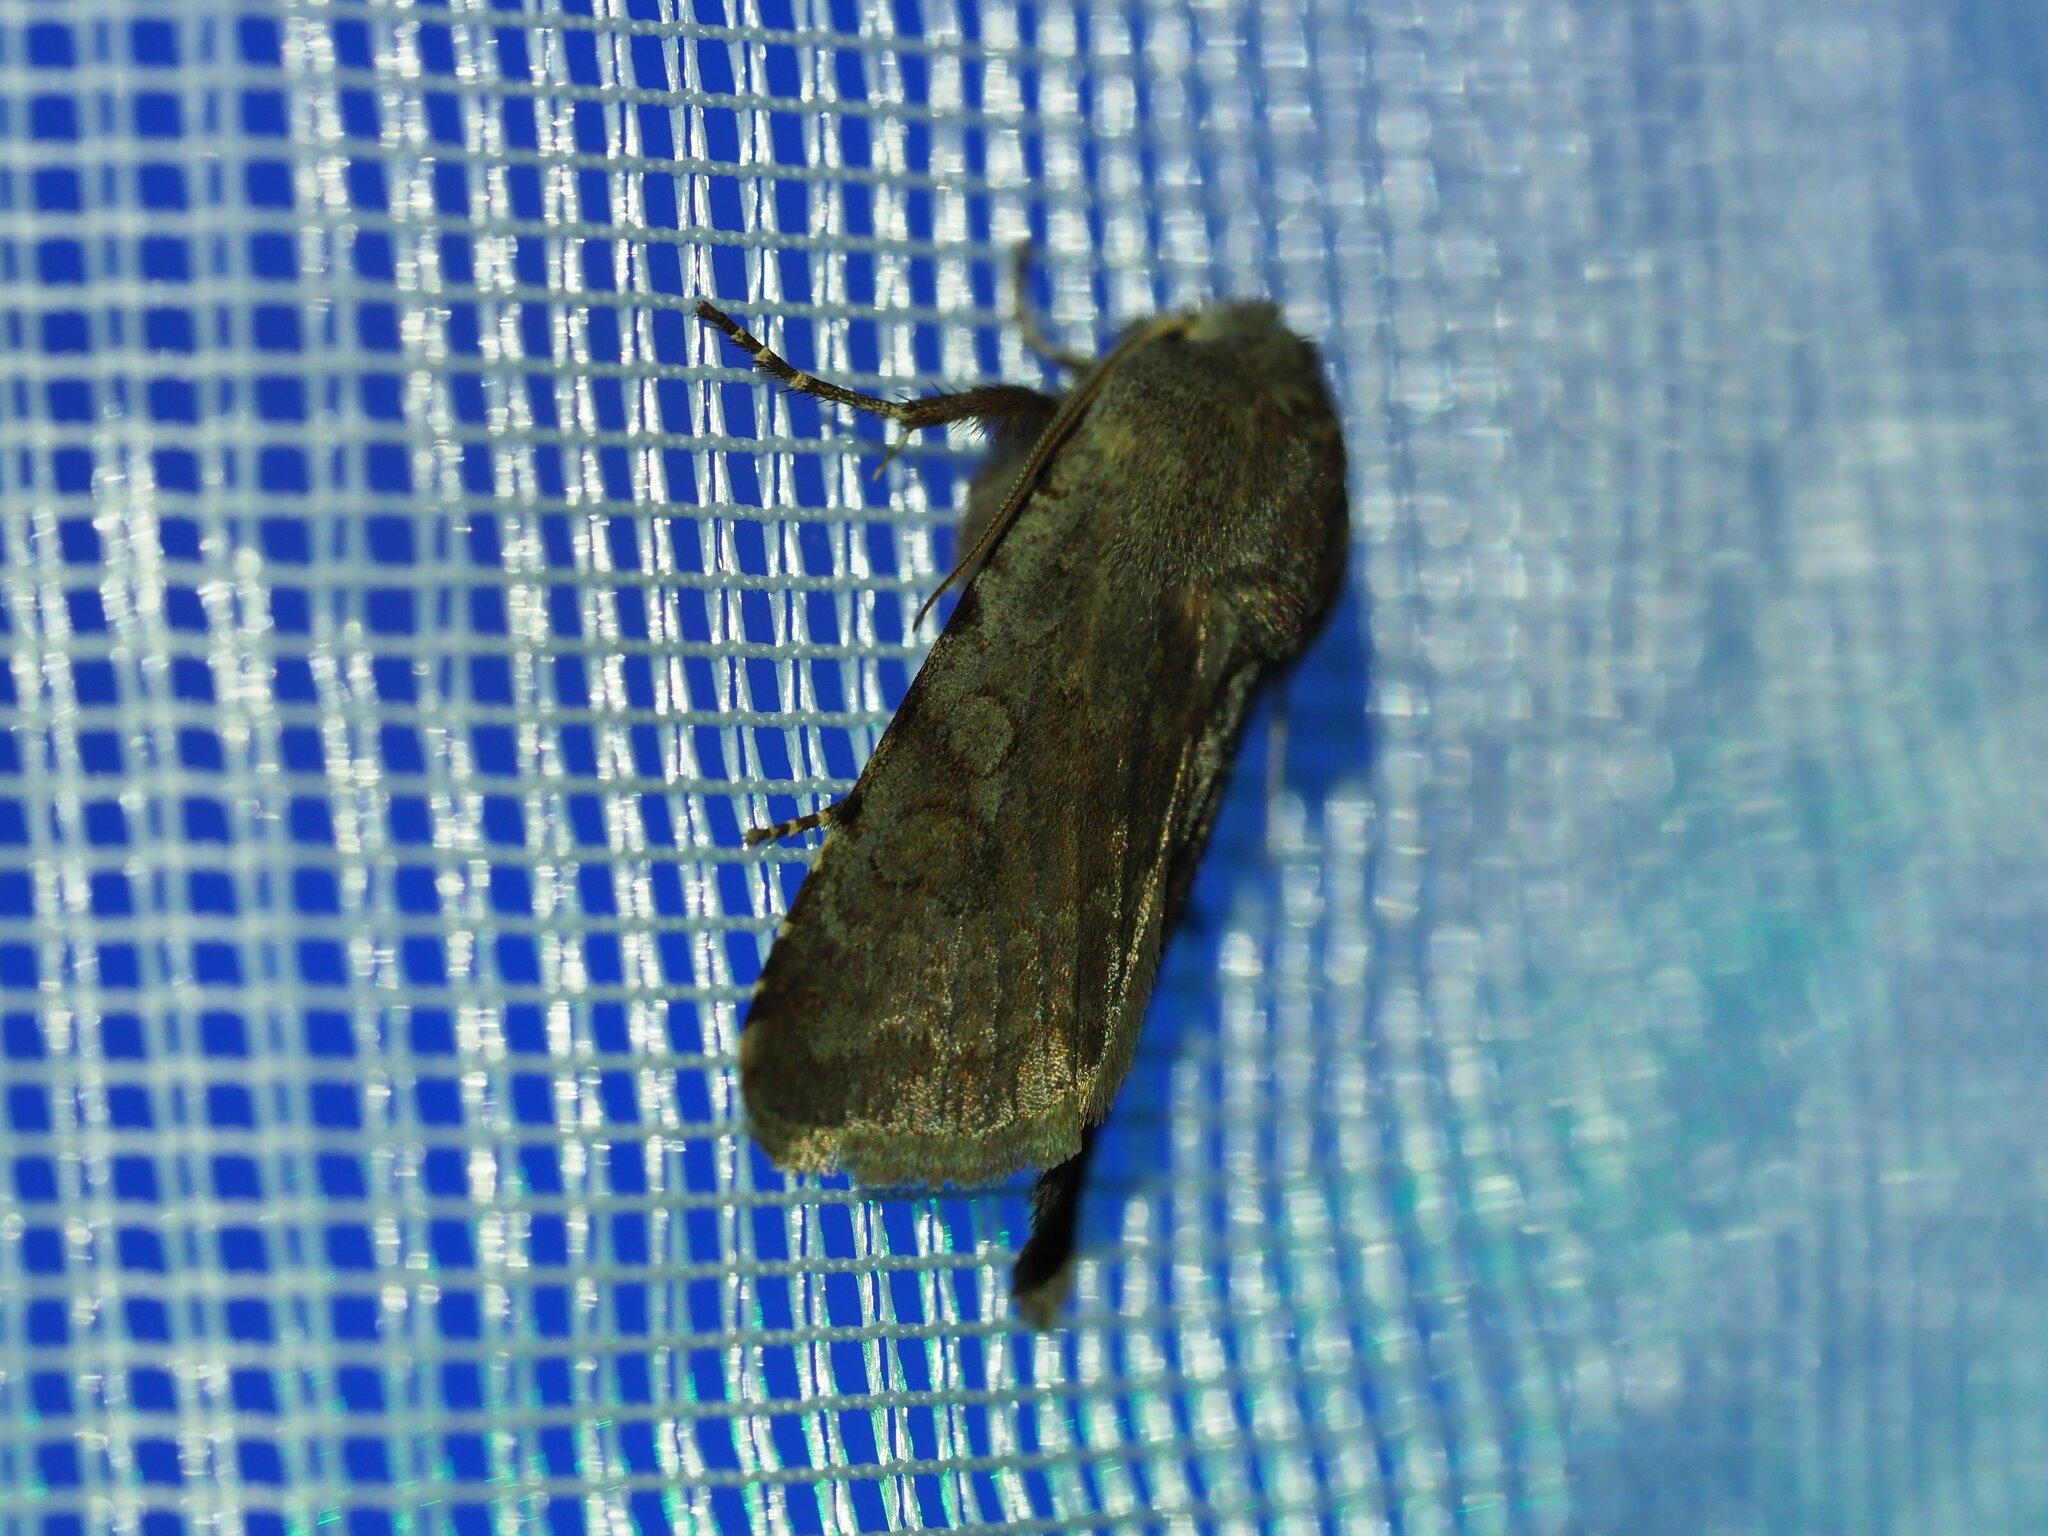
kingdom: Animalia
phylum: Arthropoda
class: Insecta
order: Lepidoptera
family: Noctuidae
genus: Cerastis
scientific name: Cerastis rubricosa
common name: Red chestnut
